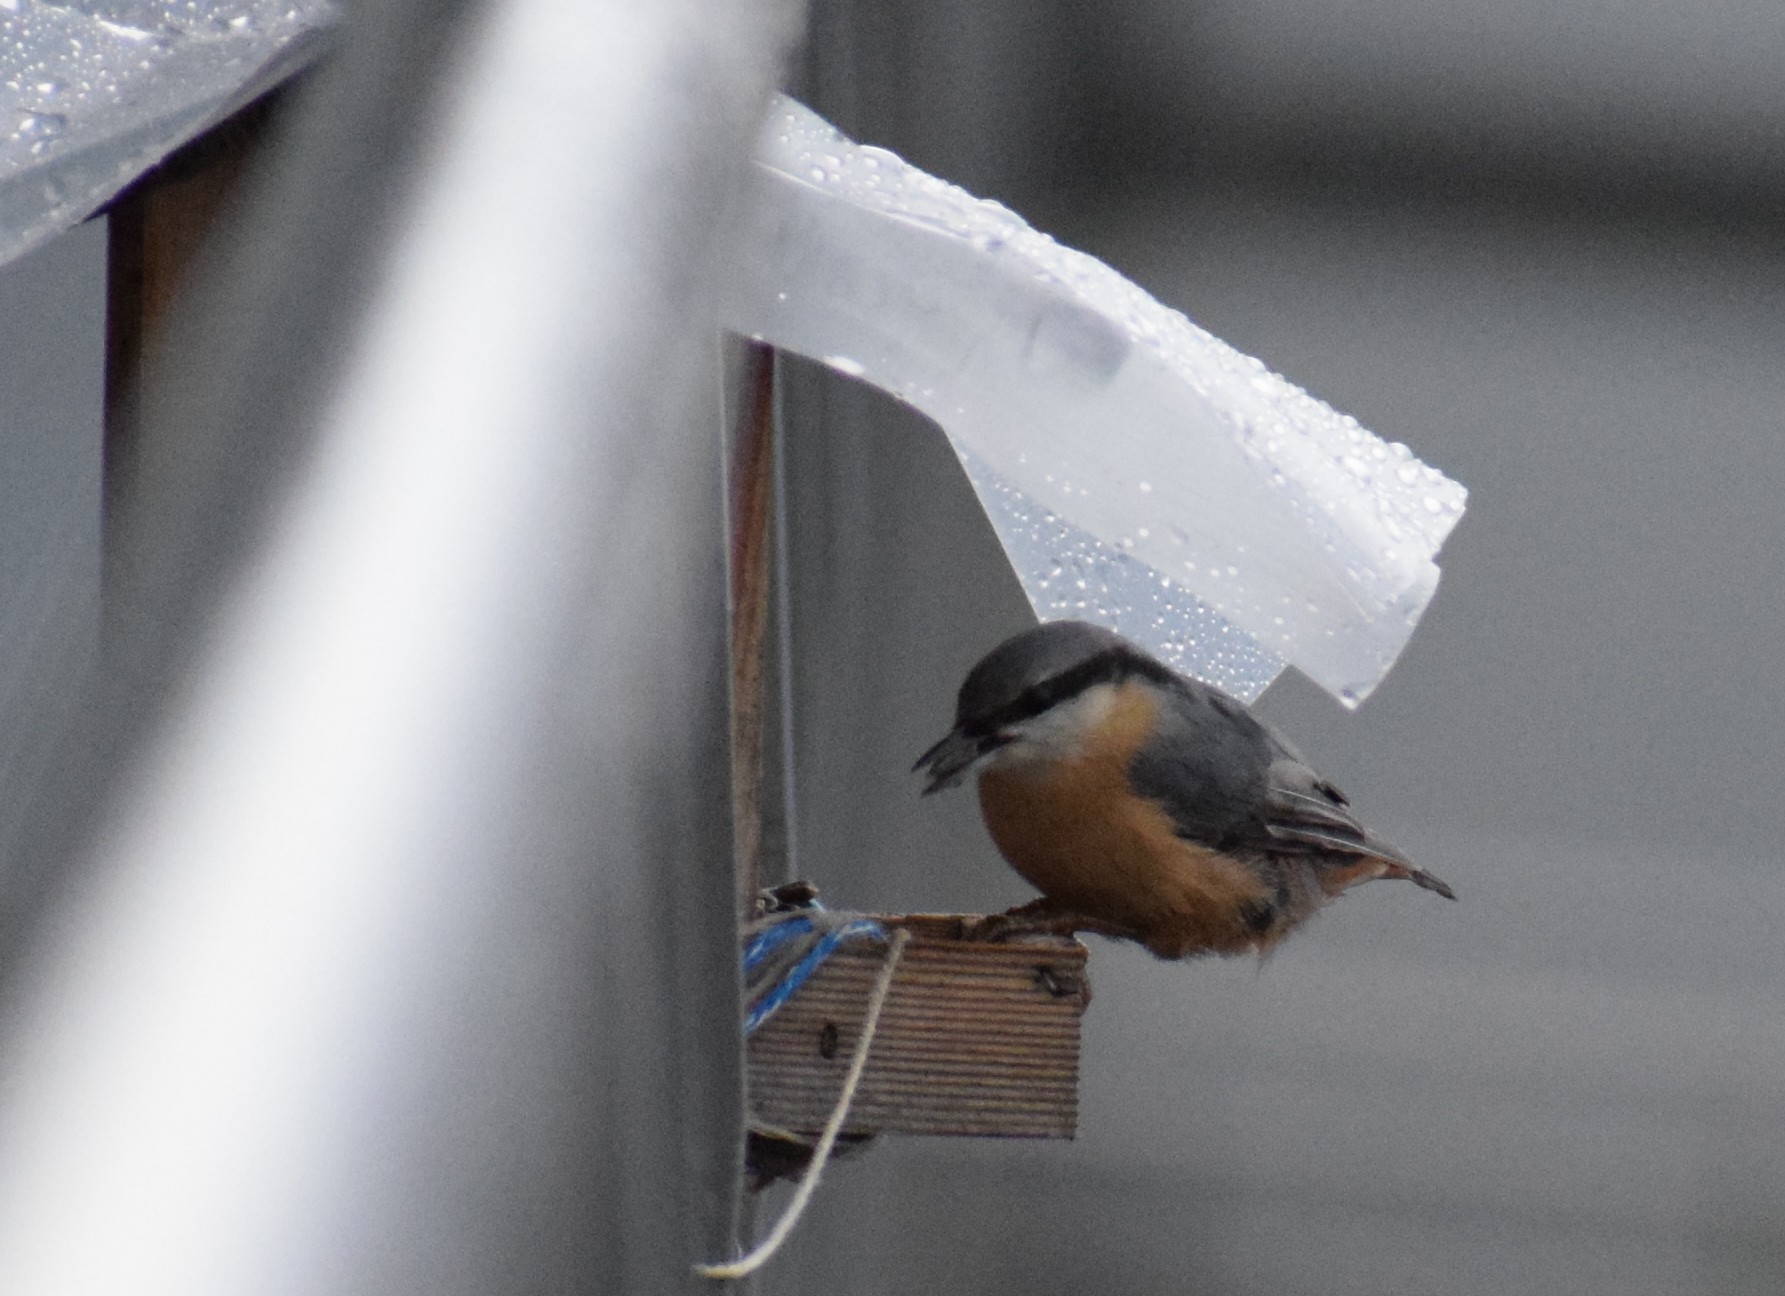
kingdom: Animalia
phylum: Chordata
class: Aves
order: Passeriformes
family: Sittidae
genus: Sitta
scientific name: Sitta europaea
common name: Eurasian nuthatch
